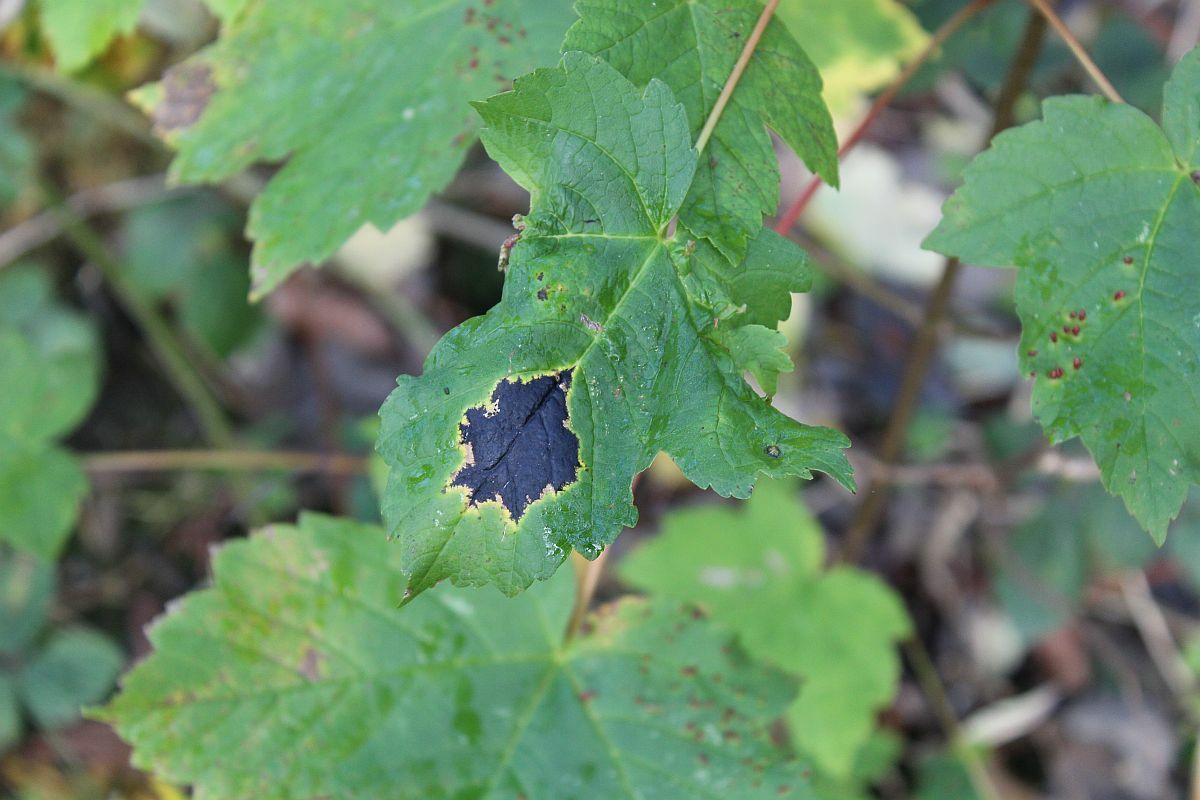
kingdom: Fungi
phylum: Ascomycota
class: Leotiomycetes
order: Rhytismatales
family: Rhytismataceae
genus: Rhytisma
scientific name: Rhytisma acerinum
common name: European tar spot
